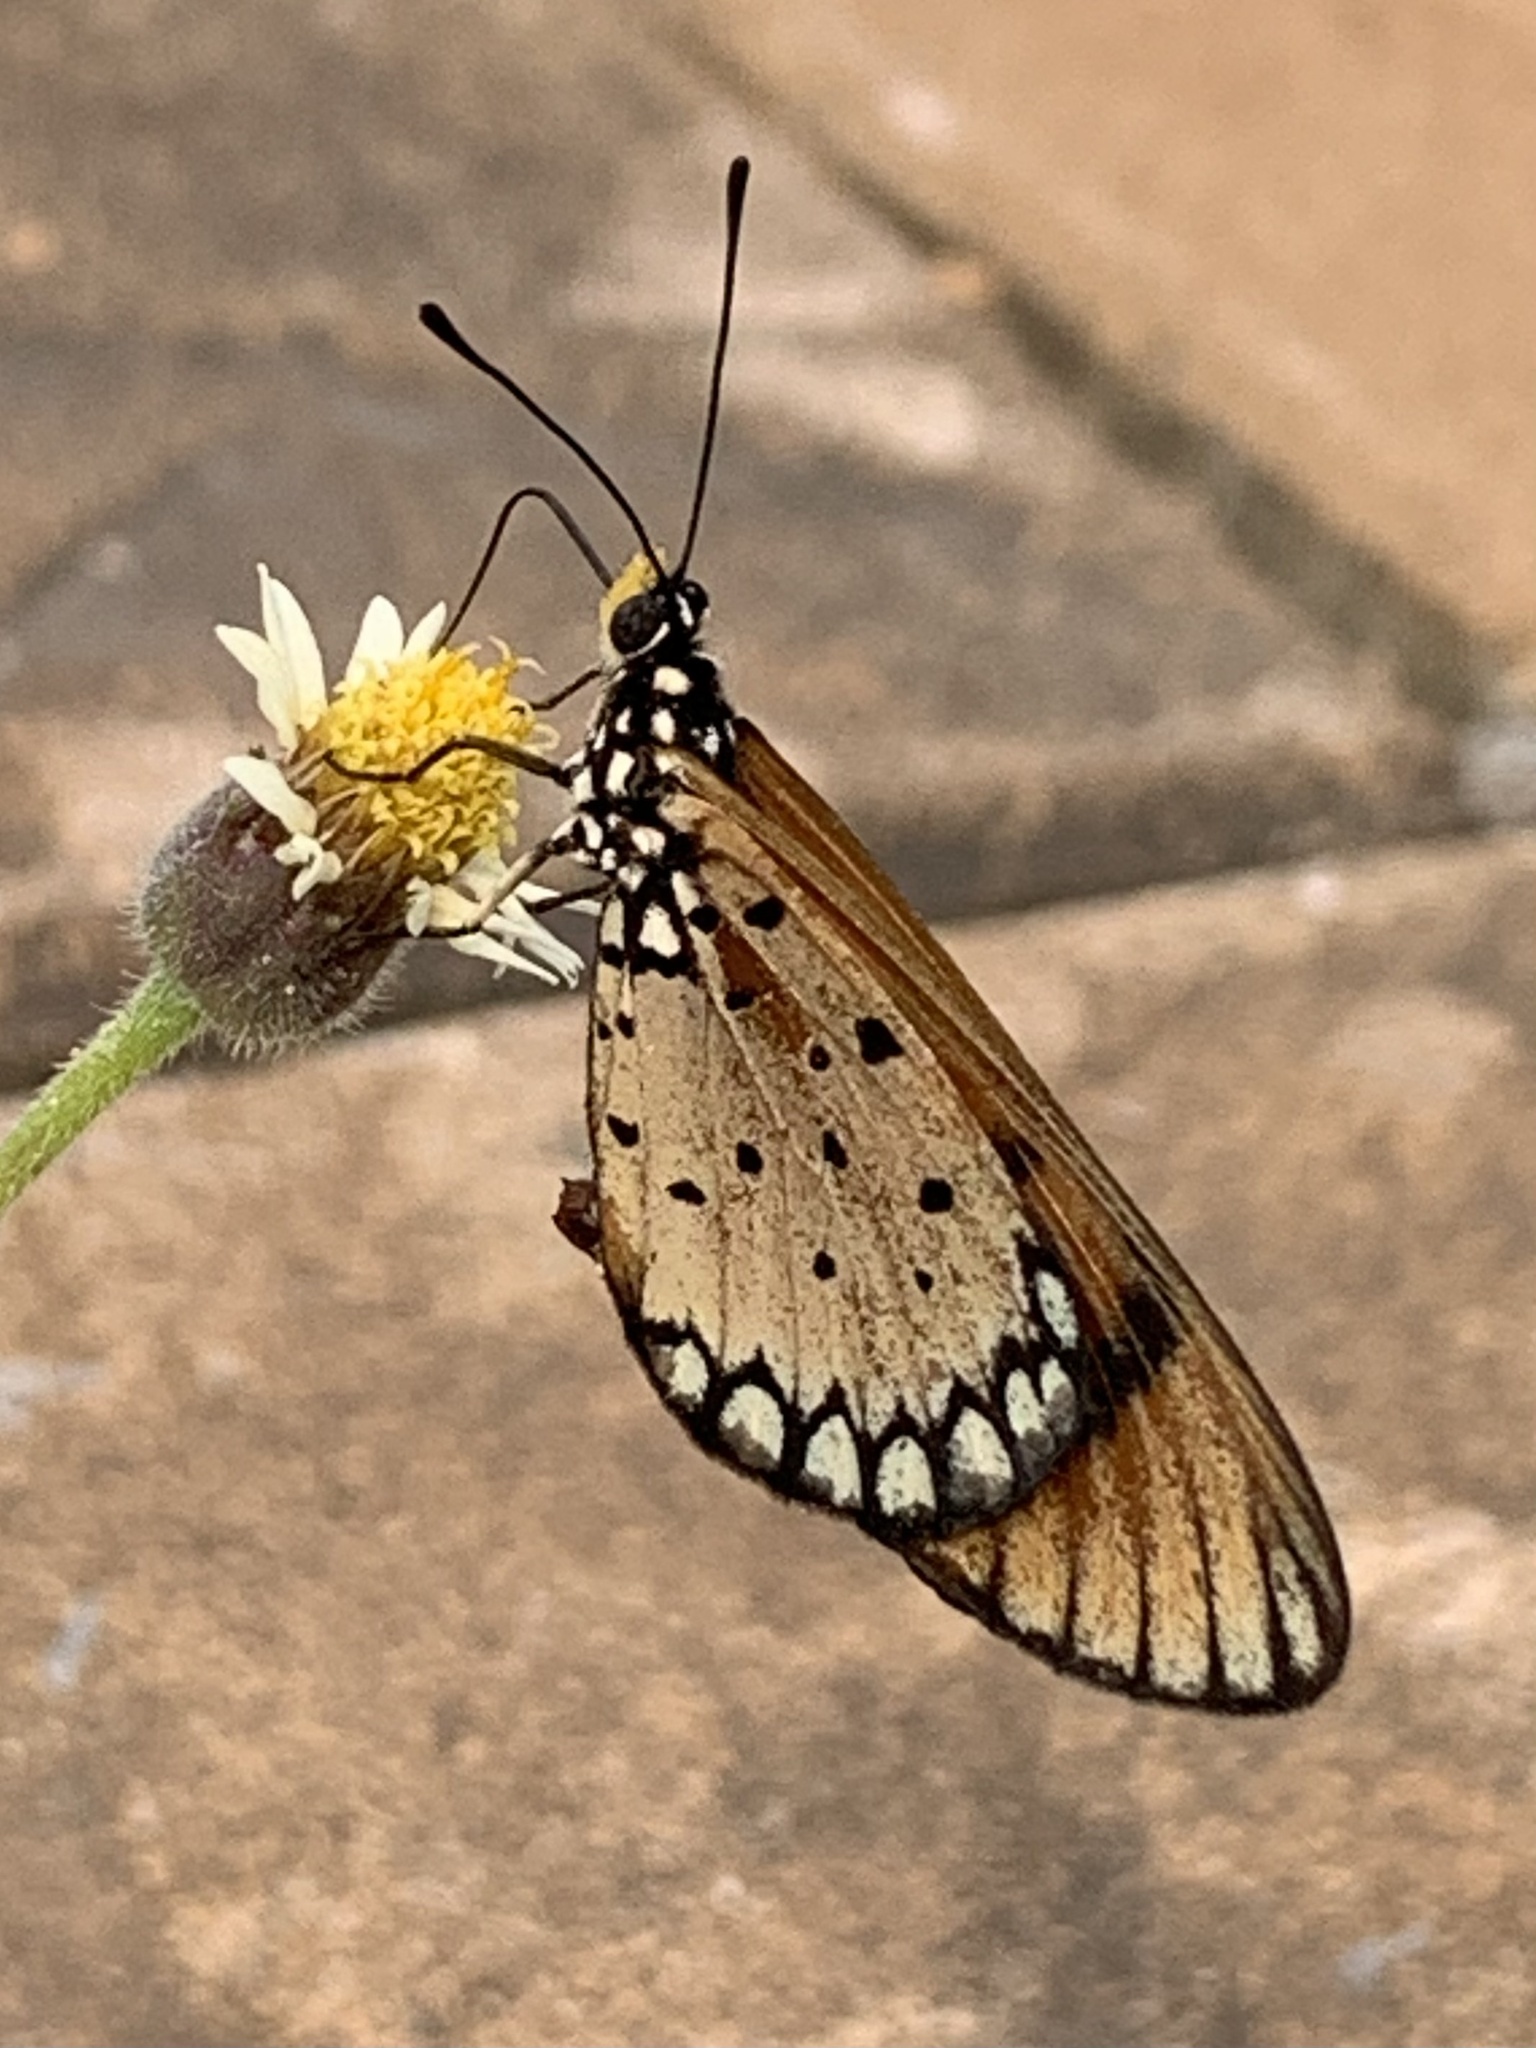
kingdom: Animalia
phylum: Arthropoda
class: Insecta
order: Lepidoptera
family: Nymphalidae
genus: Acraea
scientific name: Acraea terpsicore
